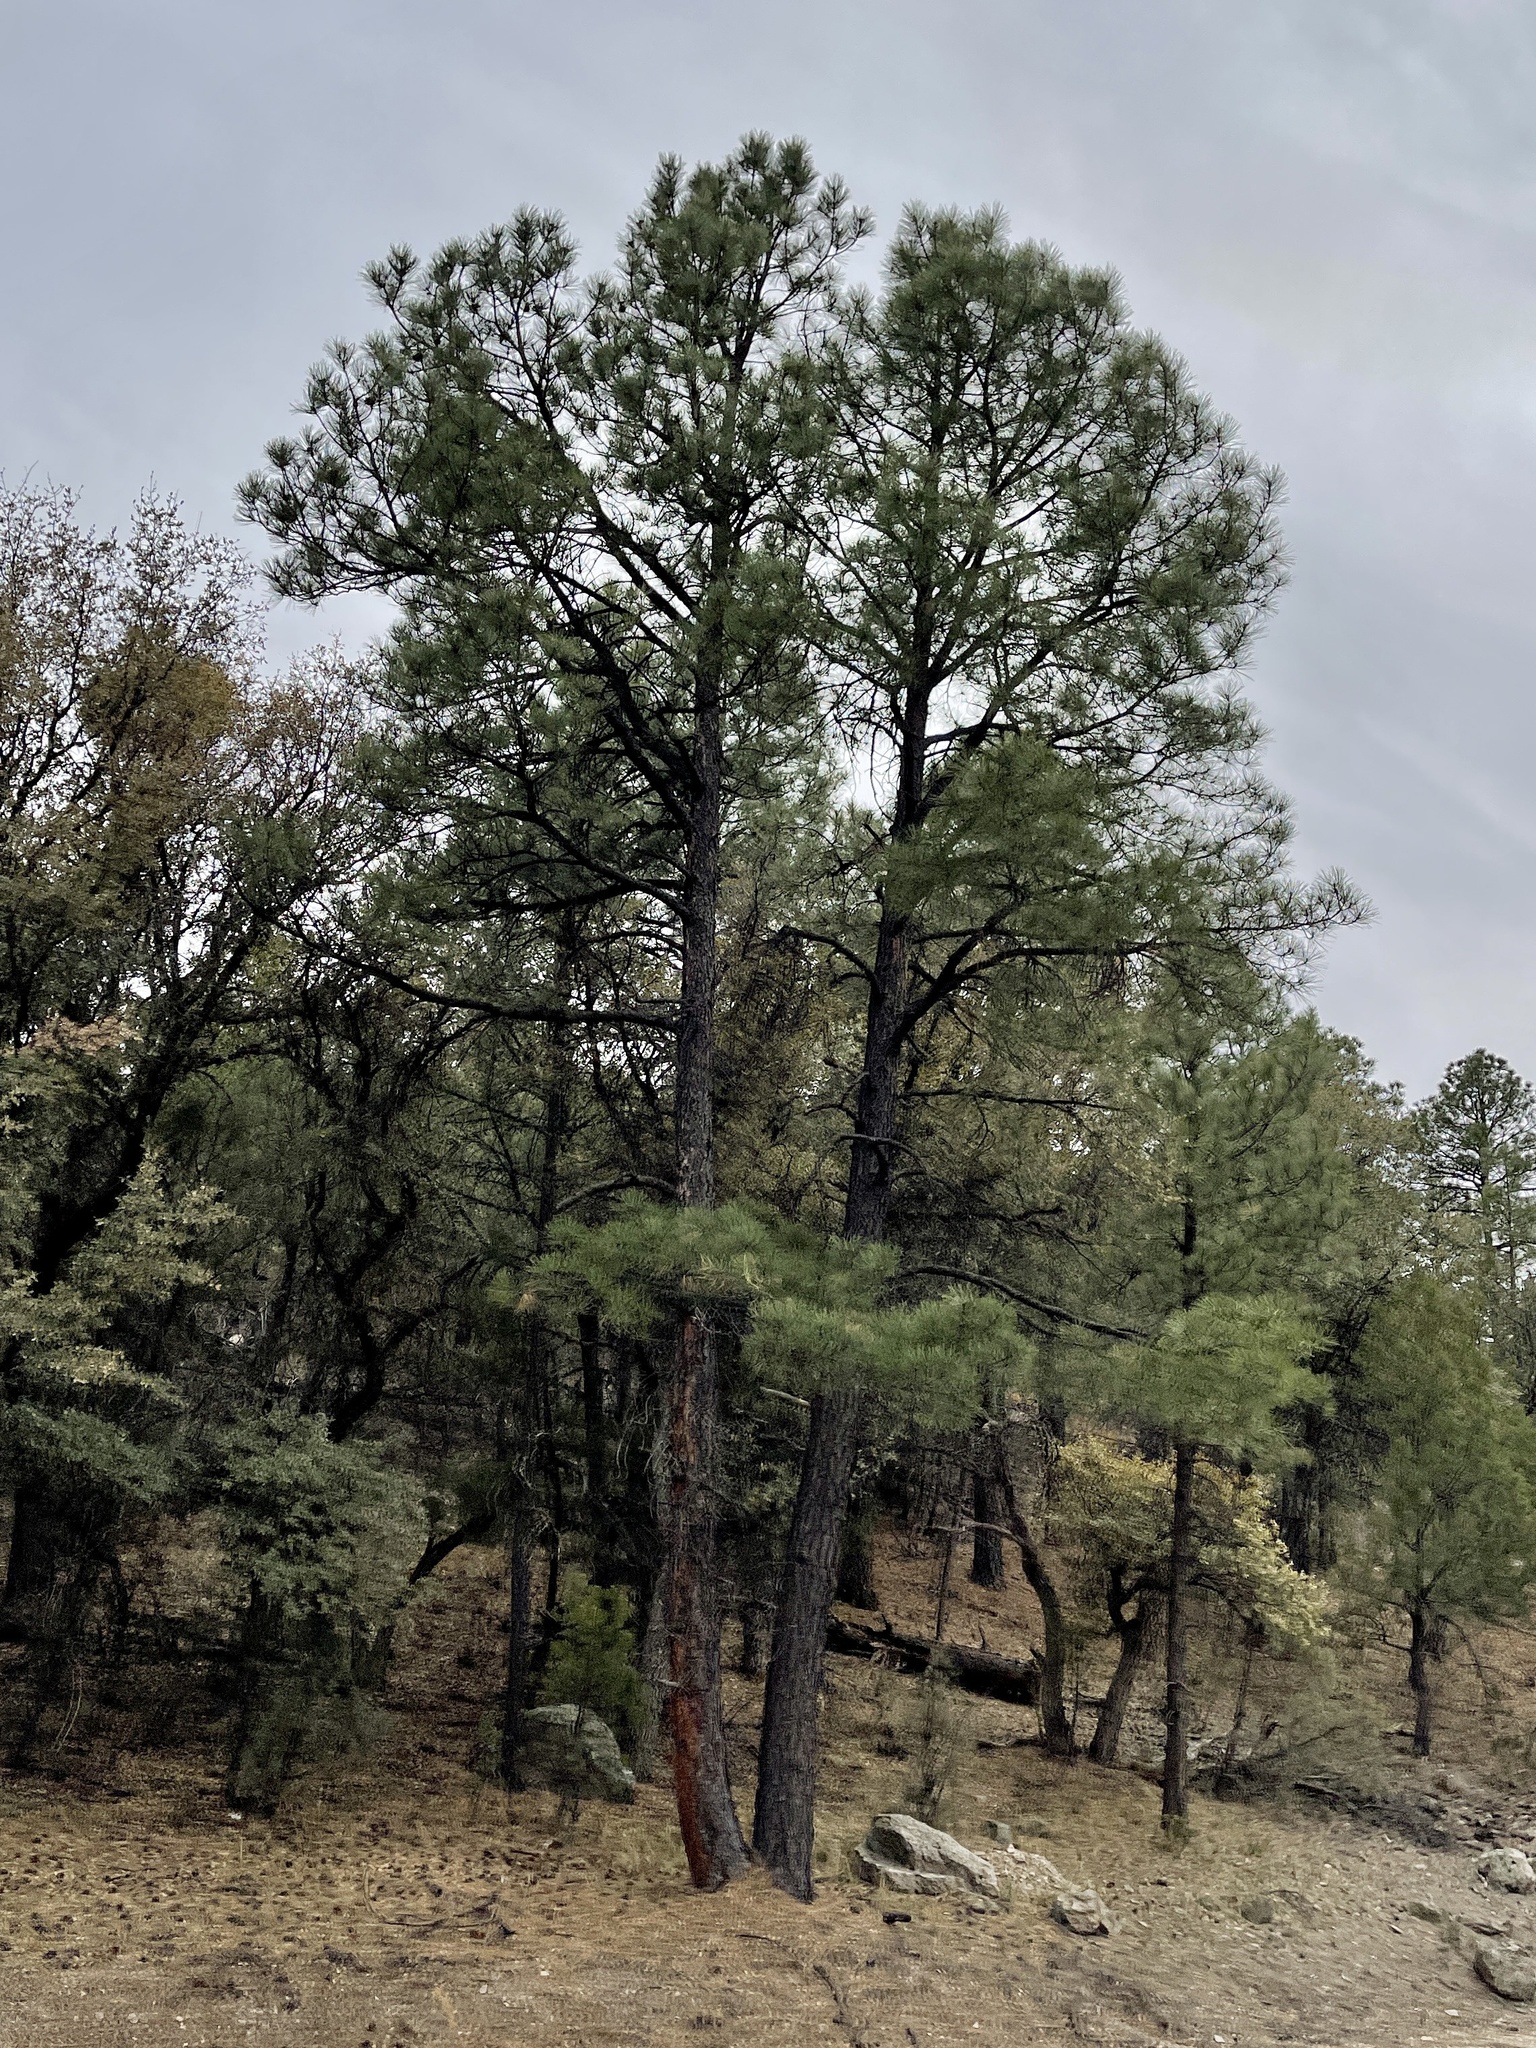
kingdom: Plantae
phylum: Tracheophyta
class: Pinopsida
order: Pinales
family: Pinaceae
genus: Pinus
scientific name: Pinus ponderosa
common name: Western yellow-pine
